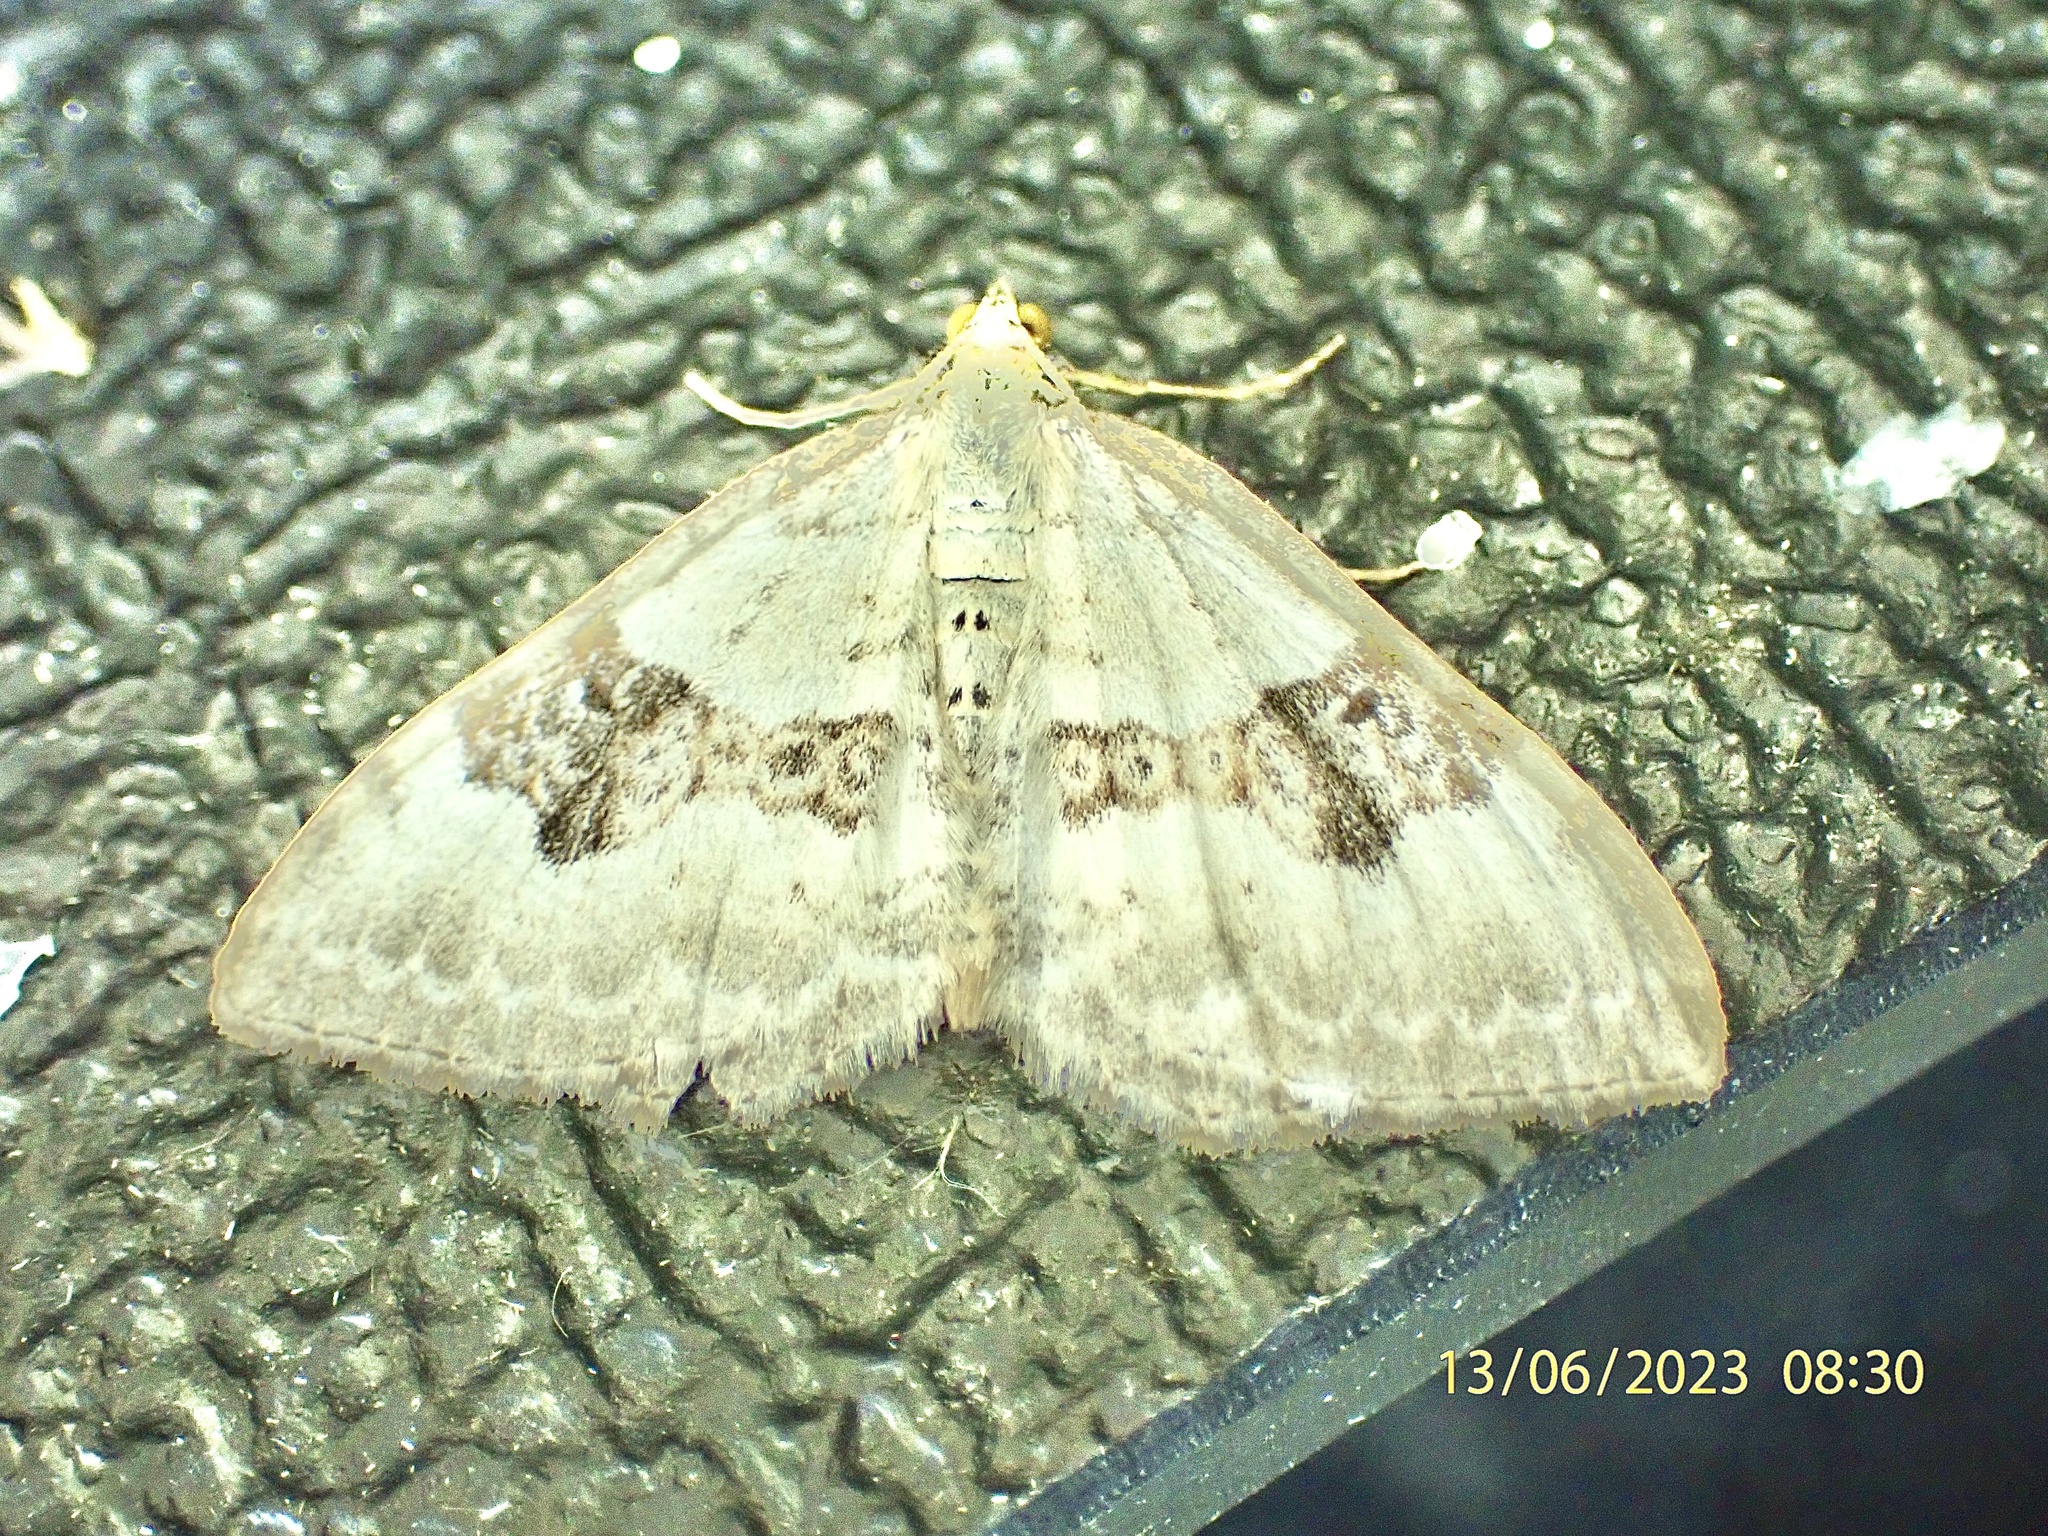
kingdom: Animalia
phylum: Arthropoda
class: Insecta
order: Lepidoptera
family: Geometridae
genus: Xanthorhoe
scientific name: Xanthorhoe montanata
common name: Silver-ground carpet
